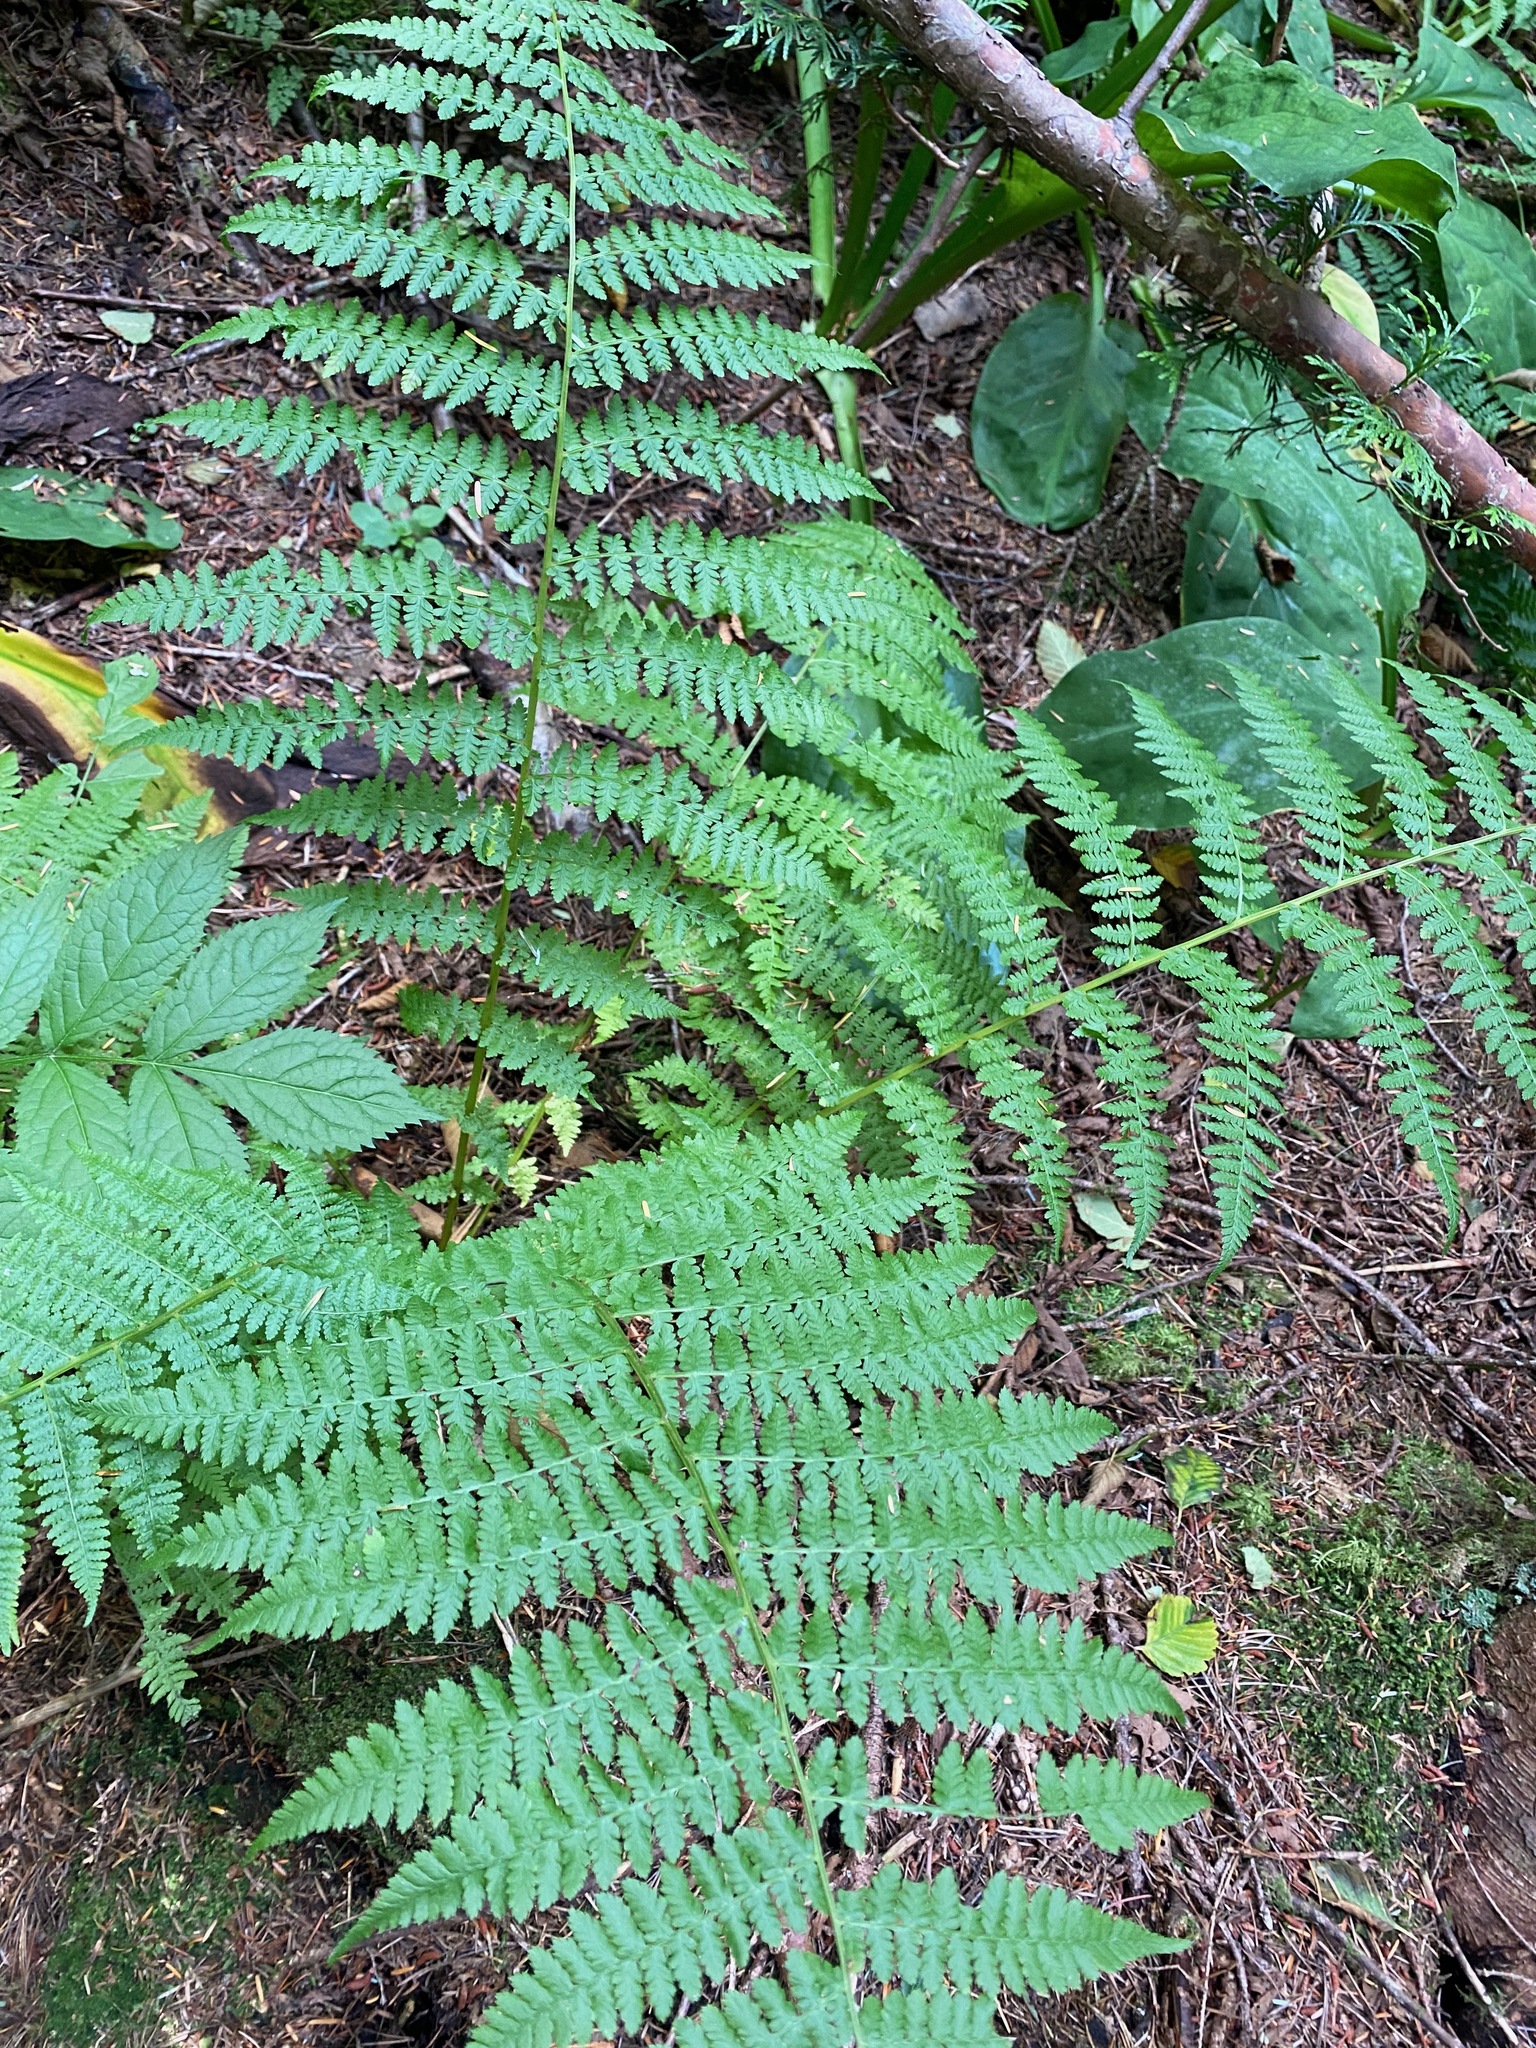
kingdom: Plantae
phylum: Tracheophyta
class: Polypodiopsida
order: Polypodiales
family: Athyriaceae
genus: Athyrium
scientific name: Athyrium filix-femina
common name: Lady fern
